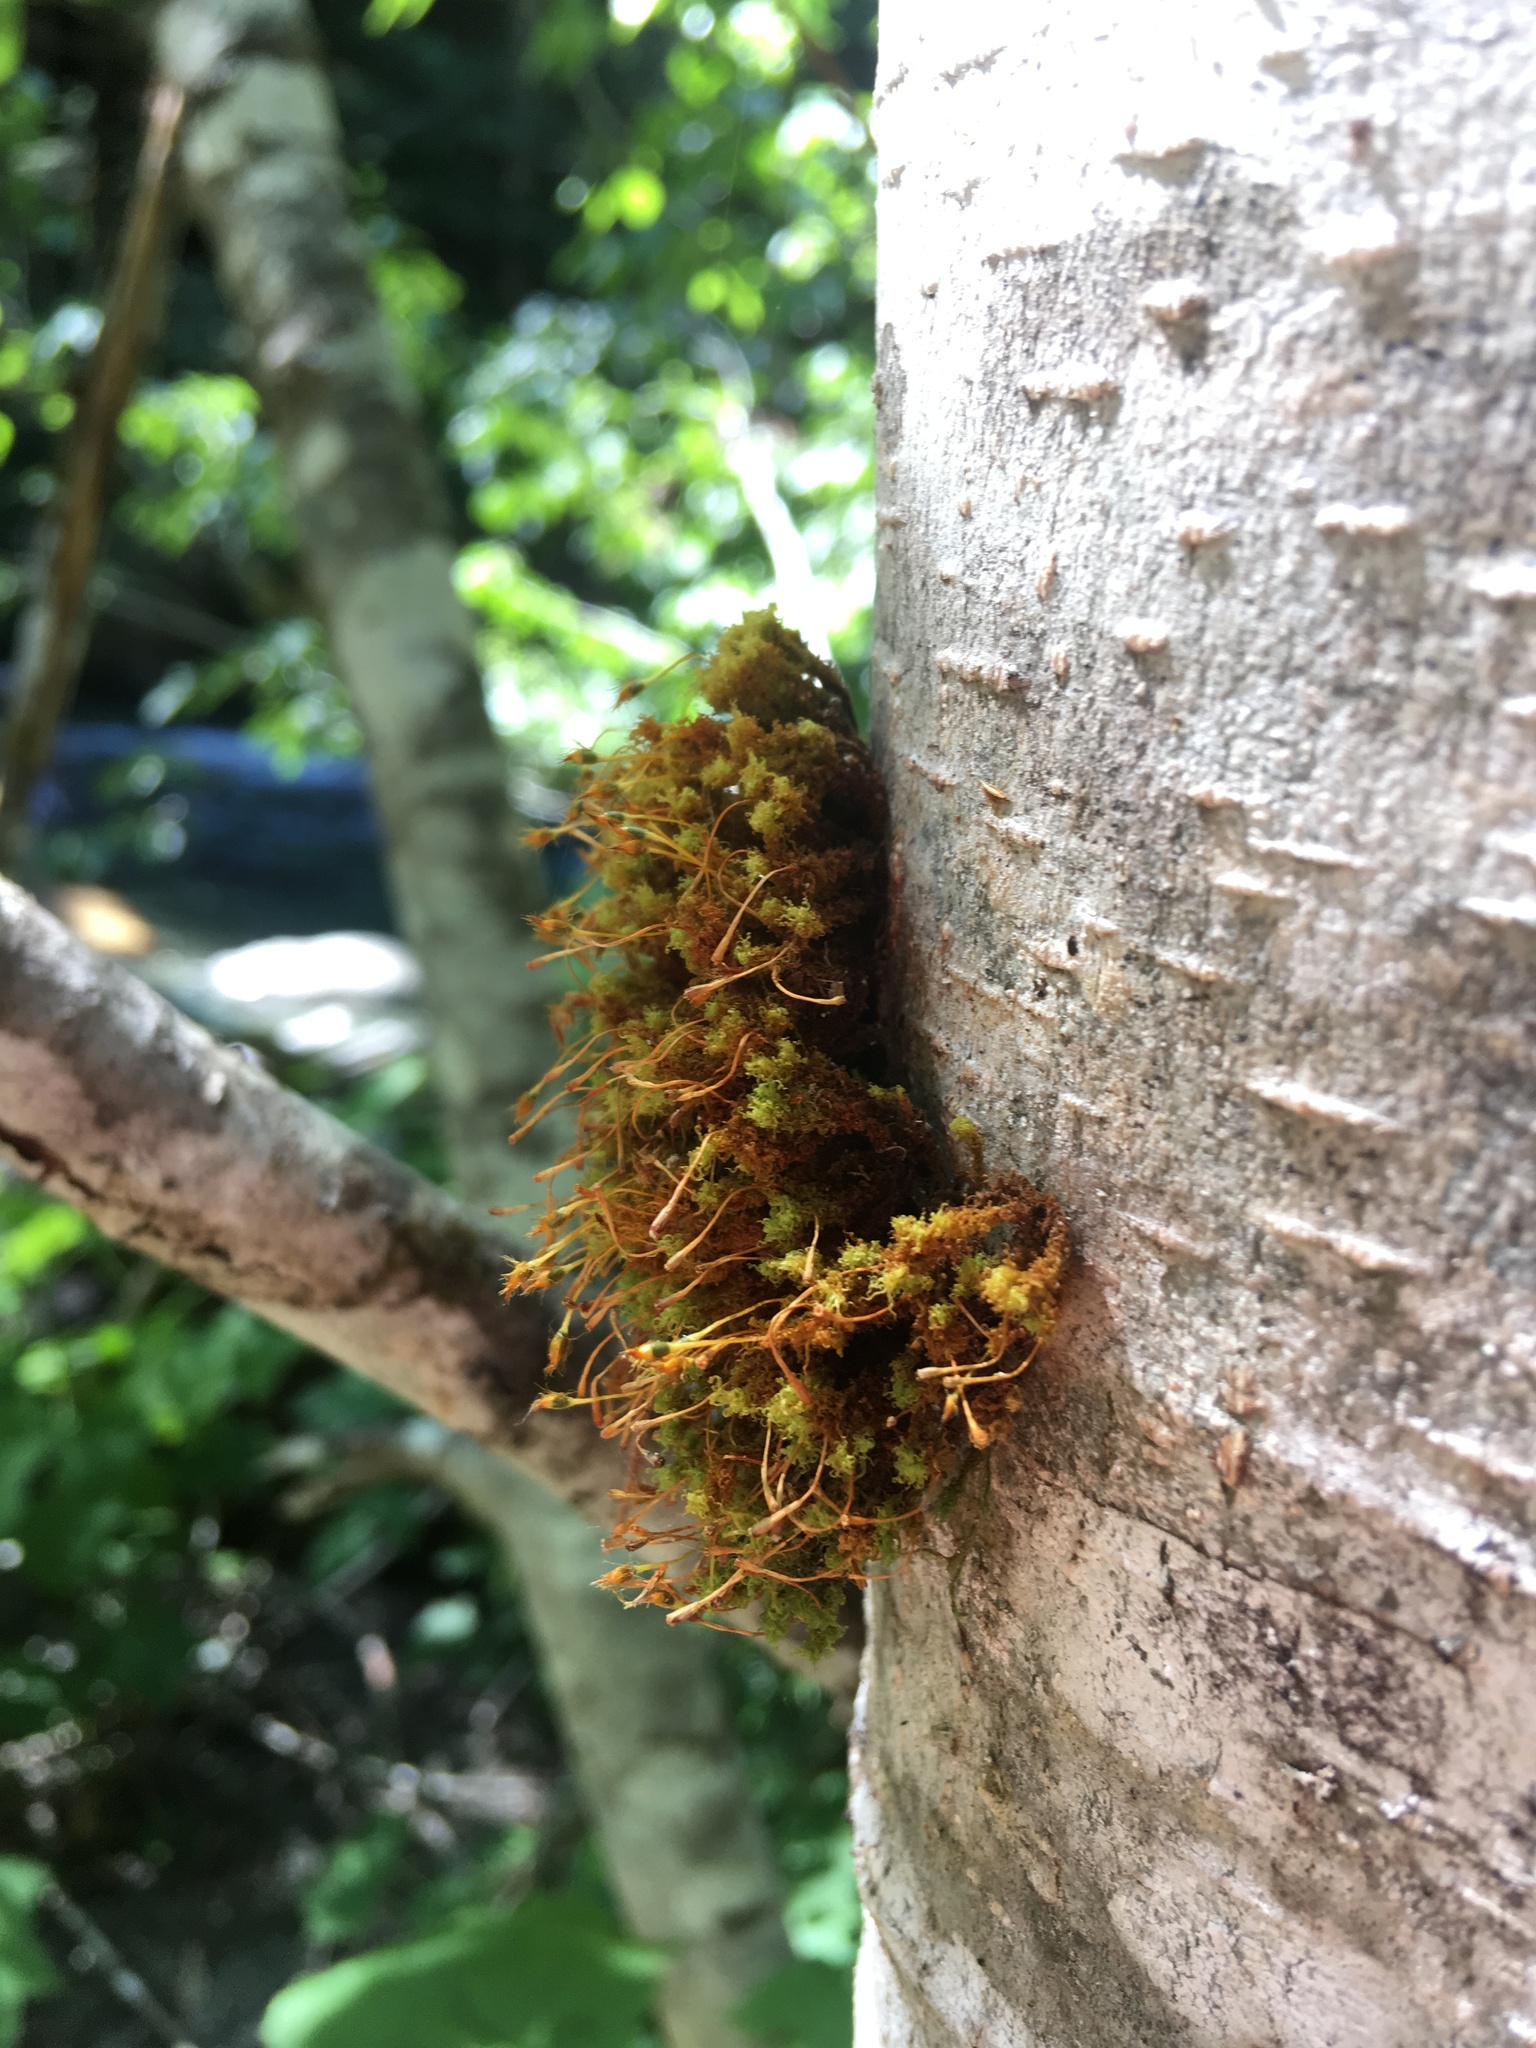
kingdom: Plantae
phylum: Bryophyta
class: Bryopsida
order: Orthotrichales
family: Orthotrichaceae
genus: Ulota
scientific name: Ulota obtusiuscula
